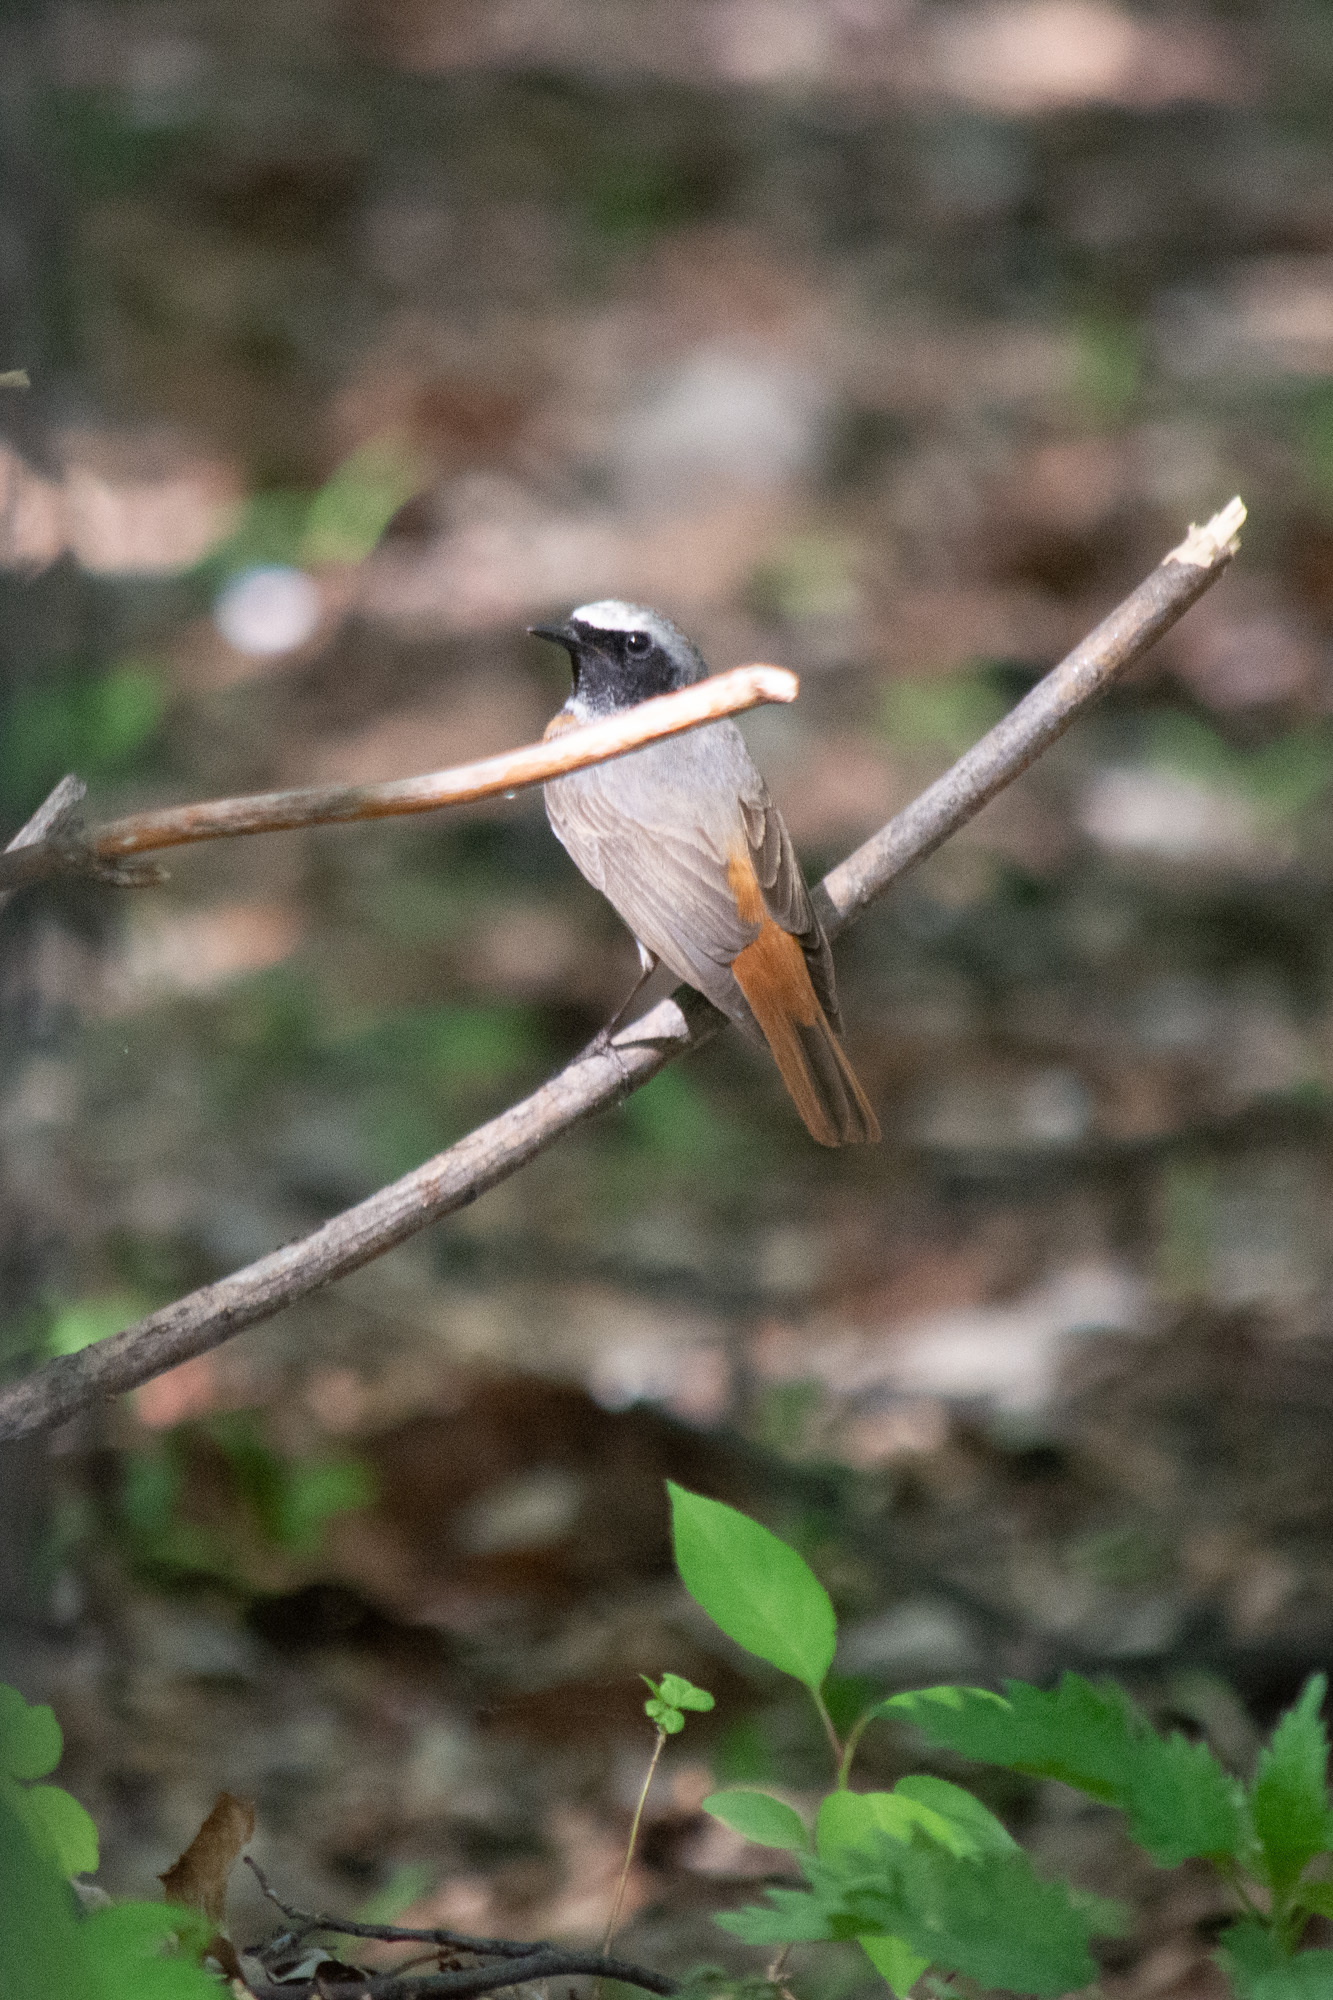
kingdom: Animalia
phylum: Chordata
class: Aves
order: Passeriformes
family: Muscicapidae
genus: Phoenicurus
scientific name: Phoenicurus phoenicurus
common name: Common redstart
